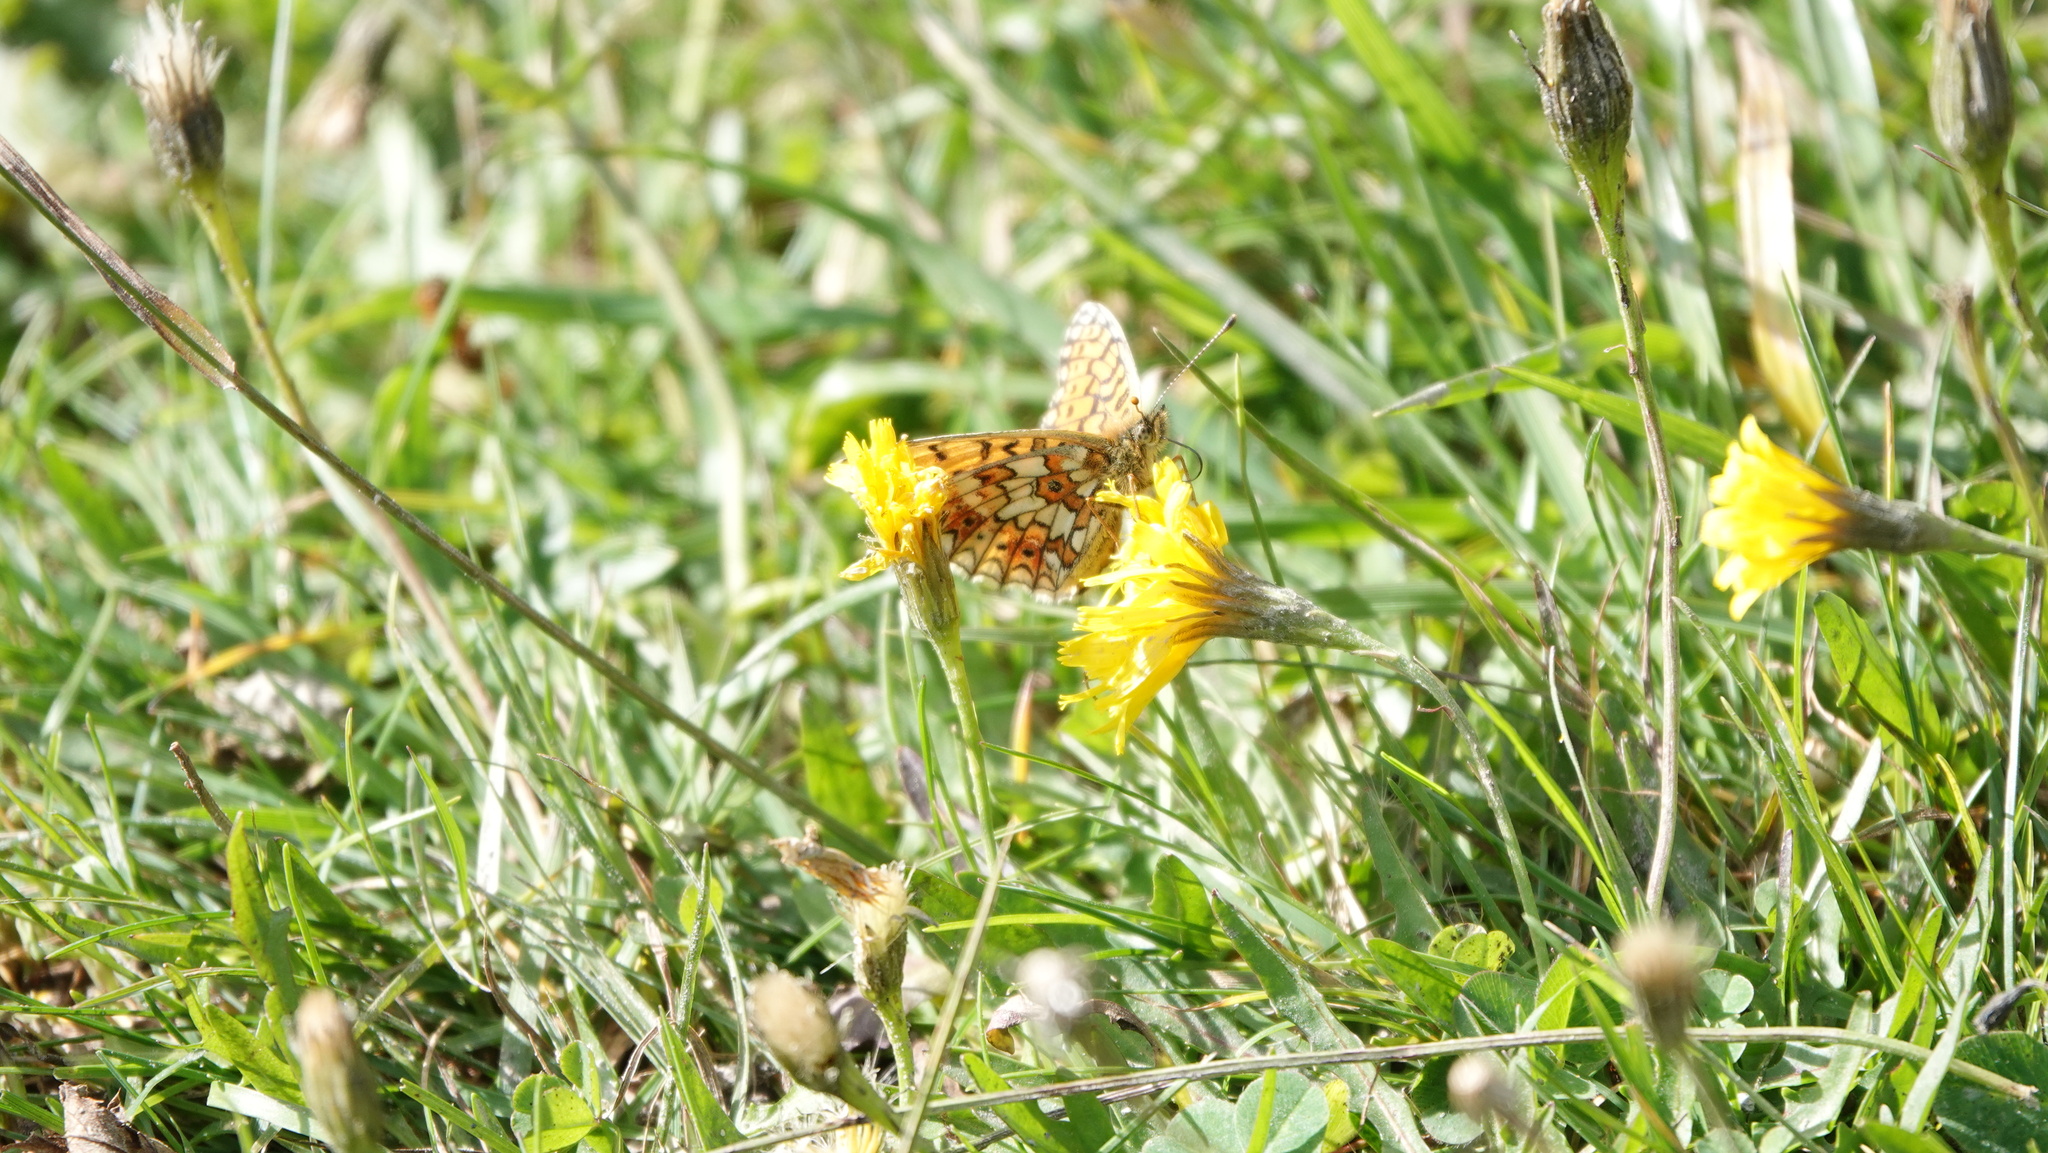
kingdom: Animalia
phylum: Arthropoda
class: Insecta
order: Lepidoptera
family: Nymphalidae
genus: Boloria
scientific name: Boloria selene
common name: Small pearl-bordered fritillary
